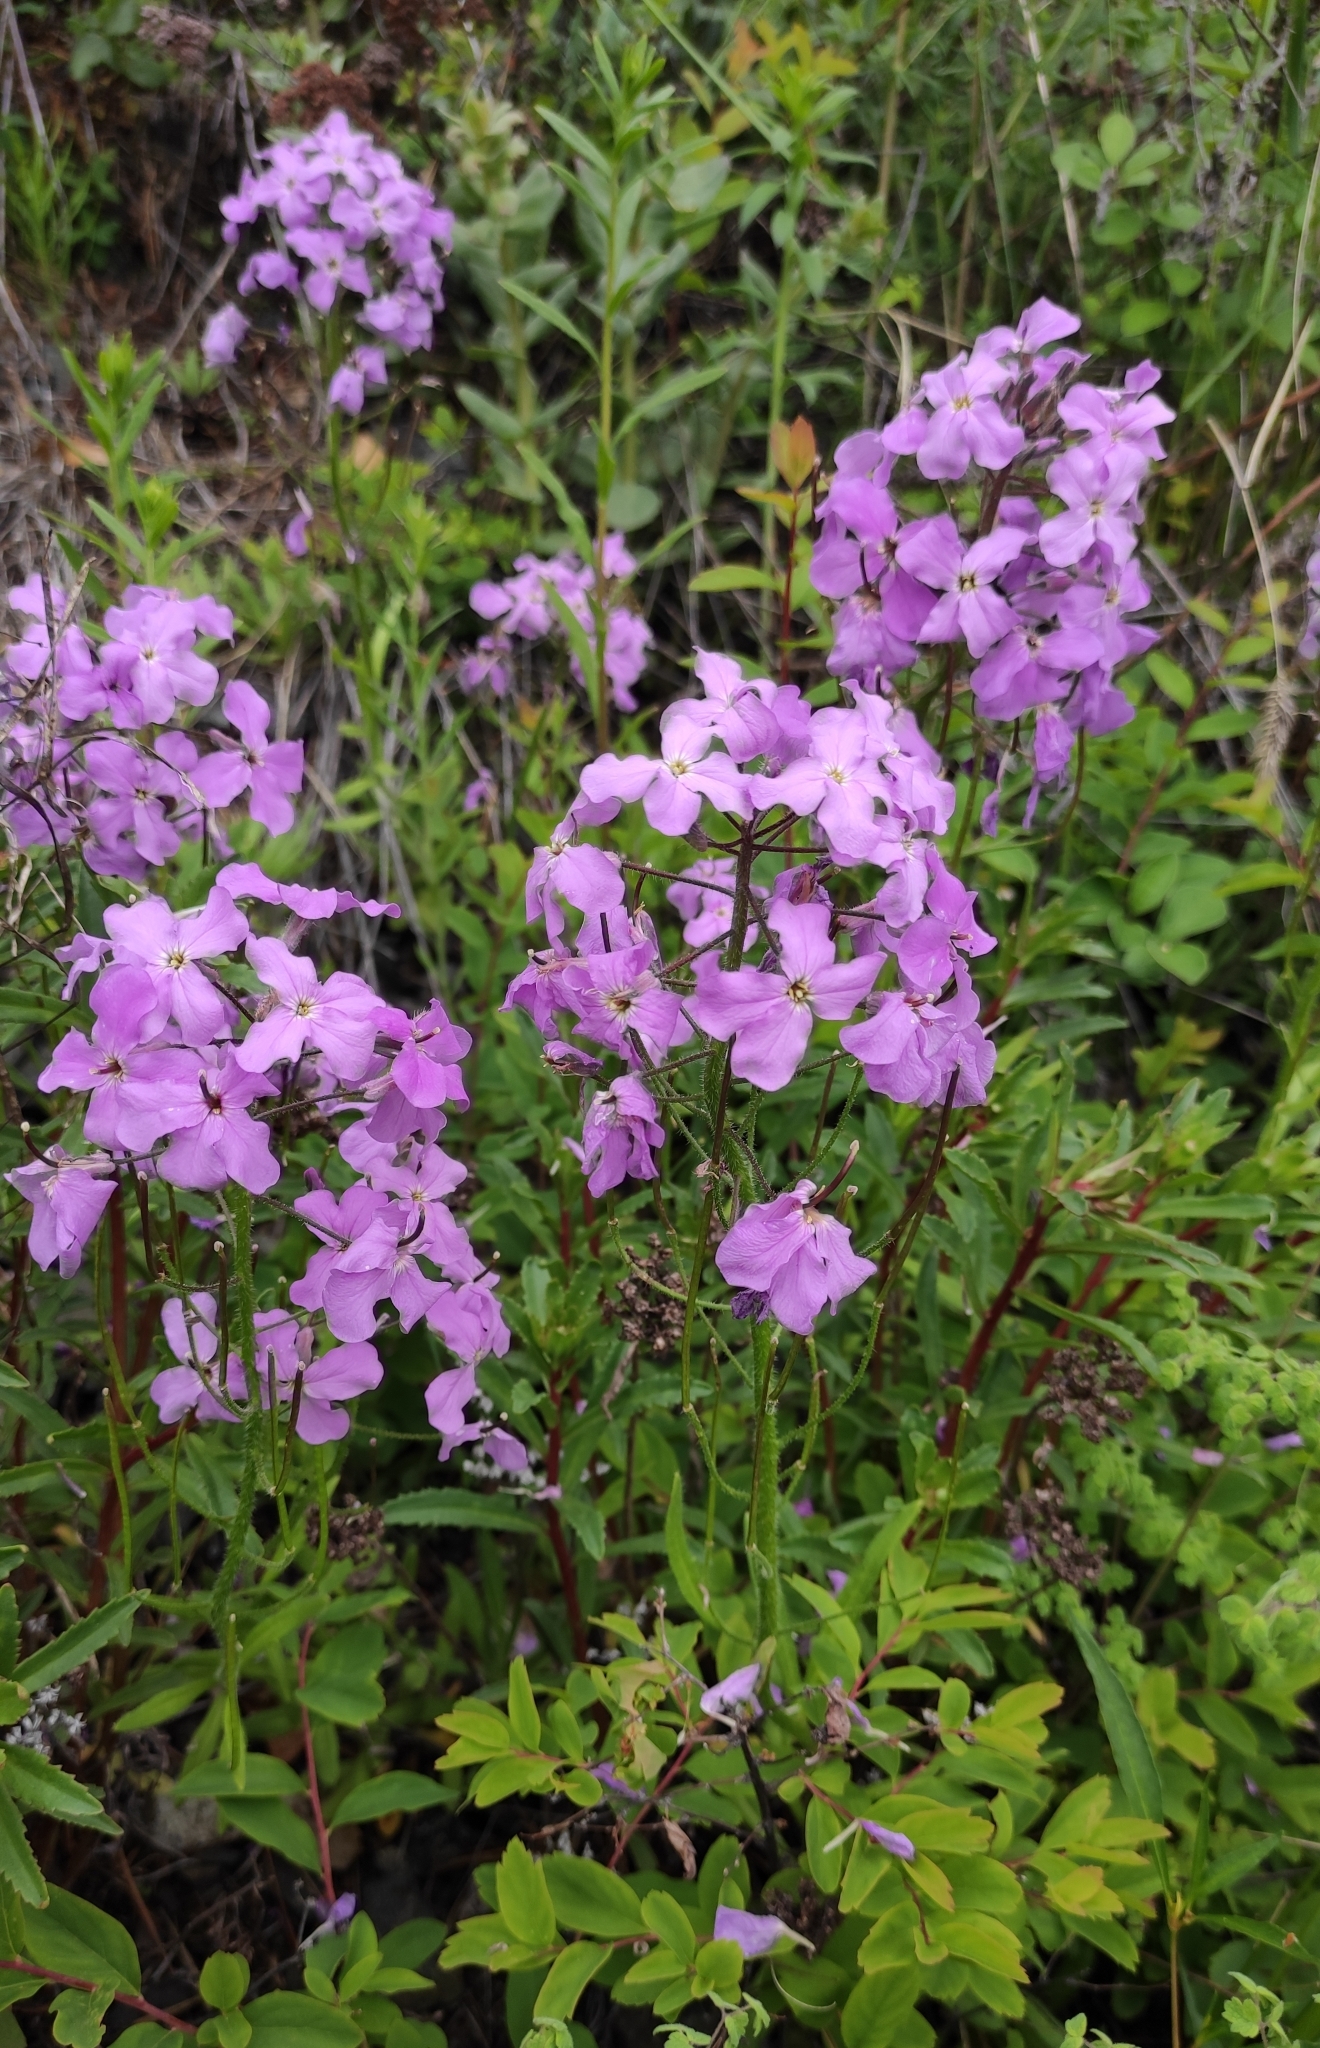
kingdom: Plantae
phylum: Tracheophyta
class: Magnoliopsida
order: Brassicales
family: Brassicaceae
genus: Clausia
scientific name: Clausia aprica
